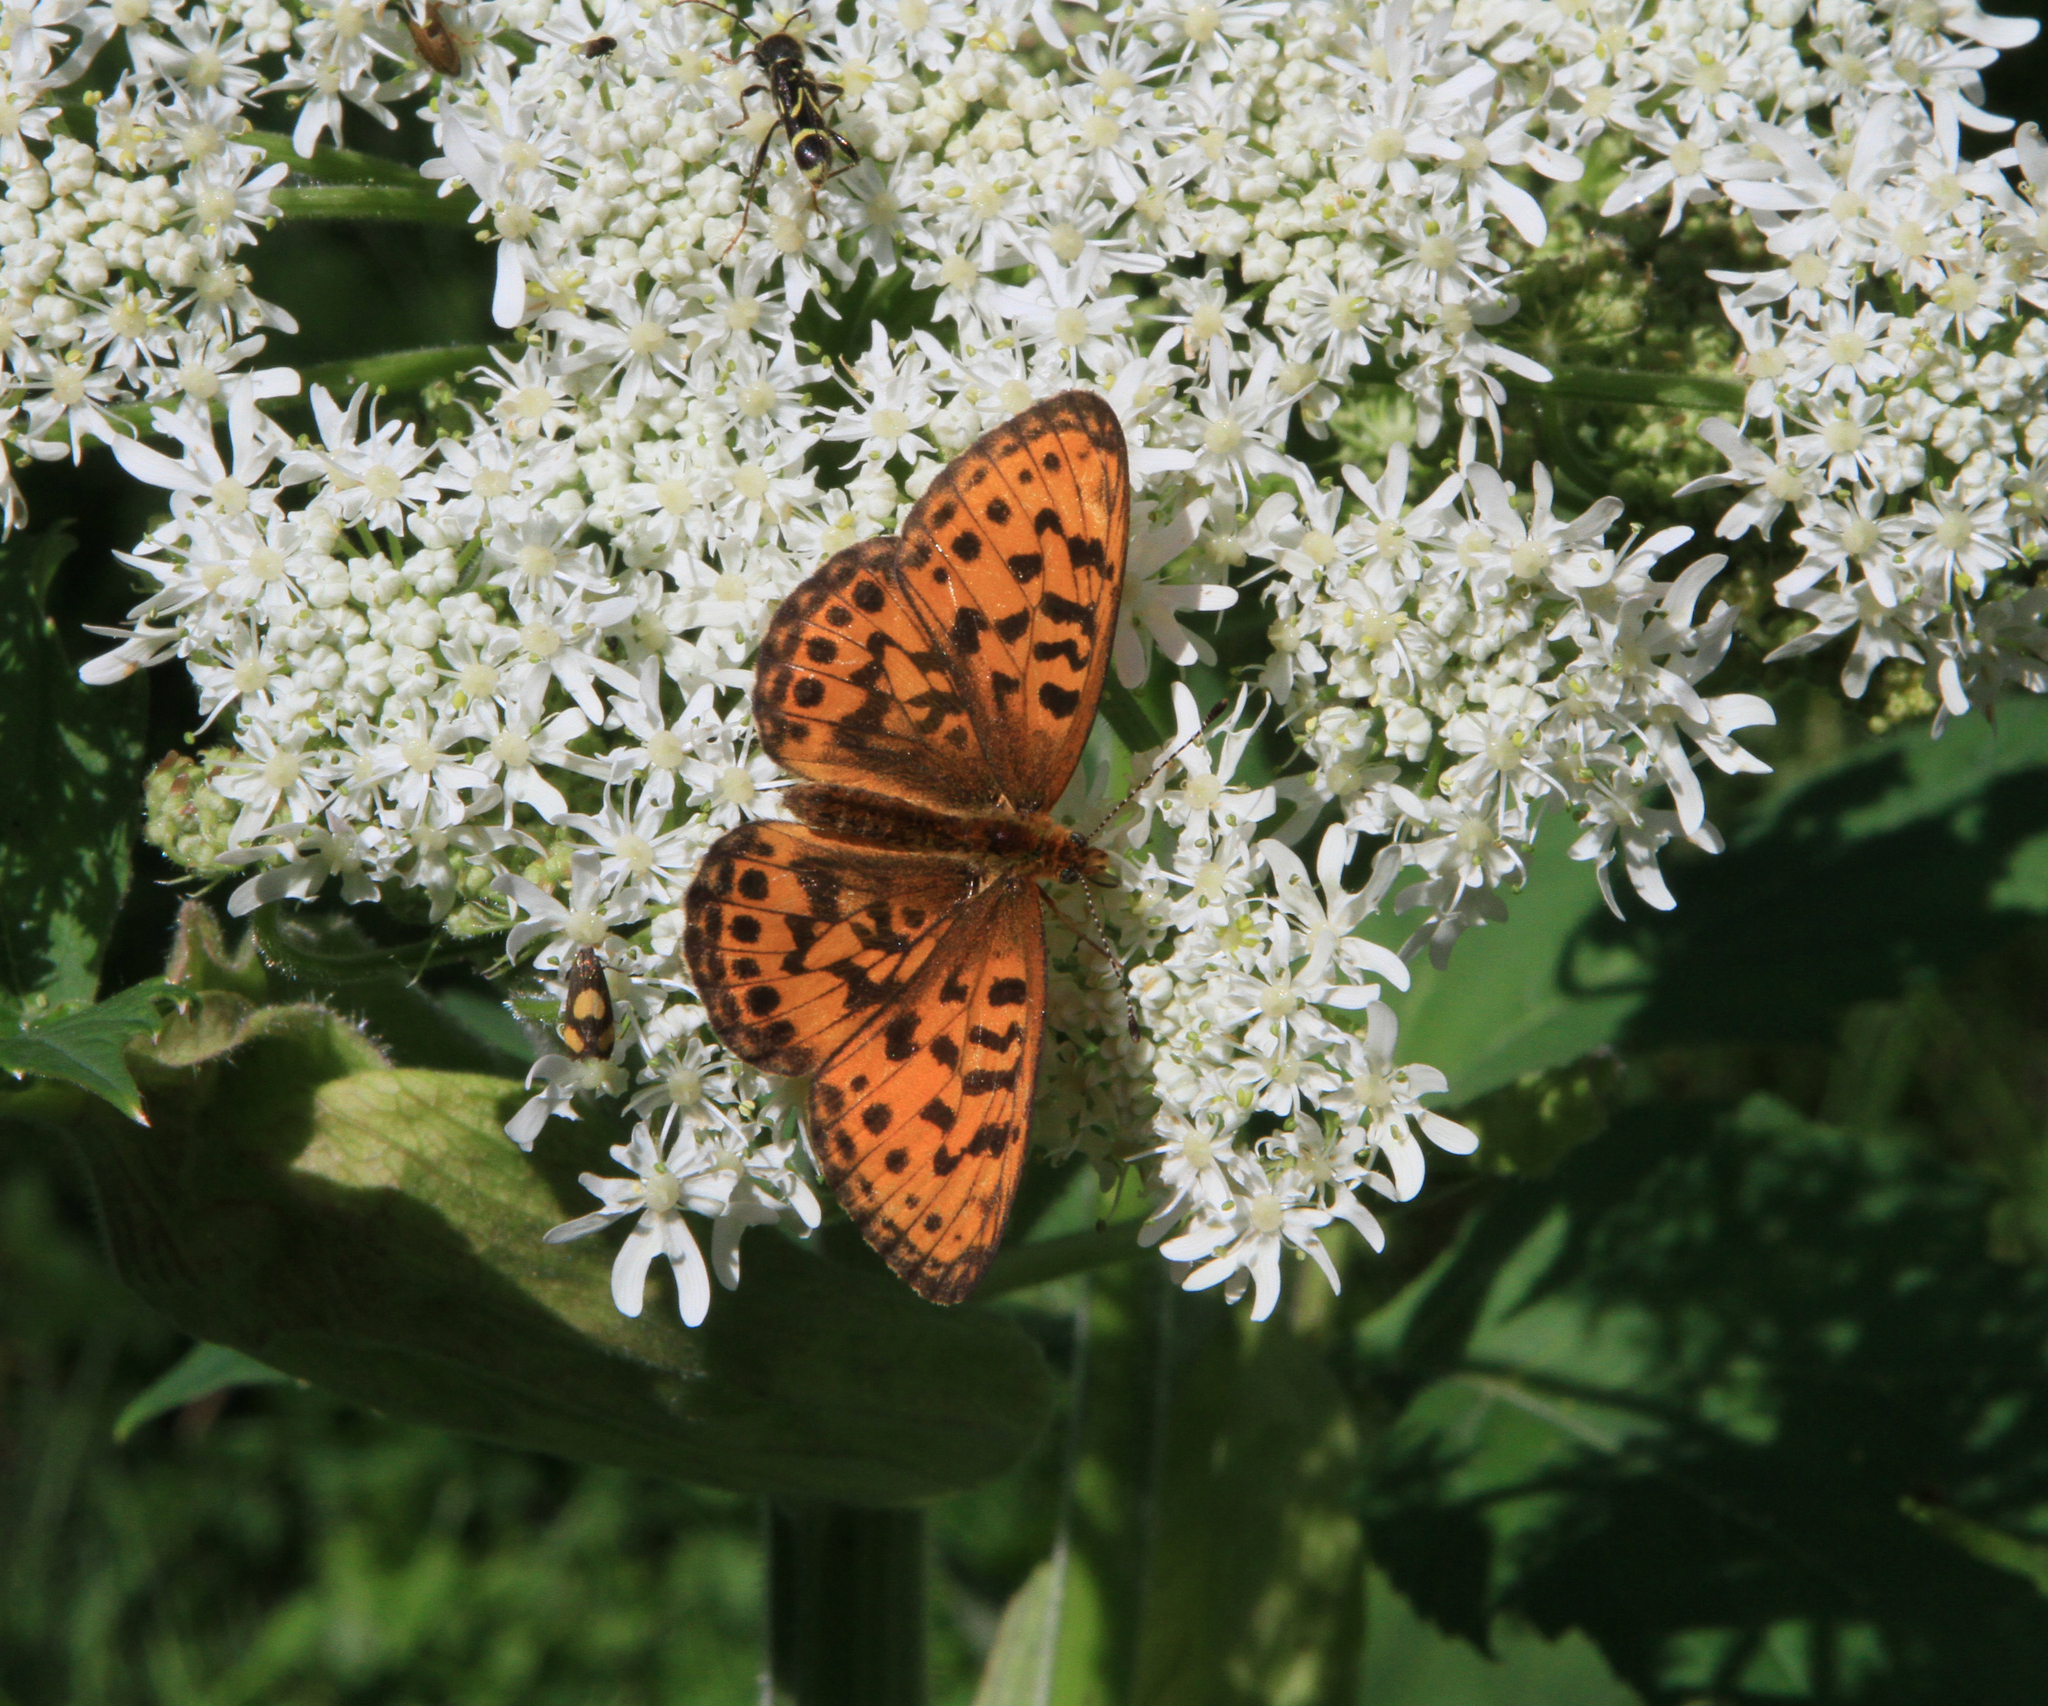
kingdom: Animalia
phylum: Arthropoda
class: Insecta
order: Lepidoptera
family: Nymphalidae
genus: Boloria
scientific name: Boloria thore
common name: Thor's fritillary
